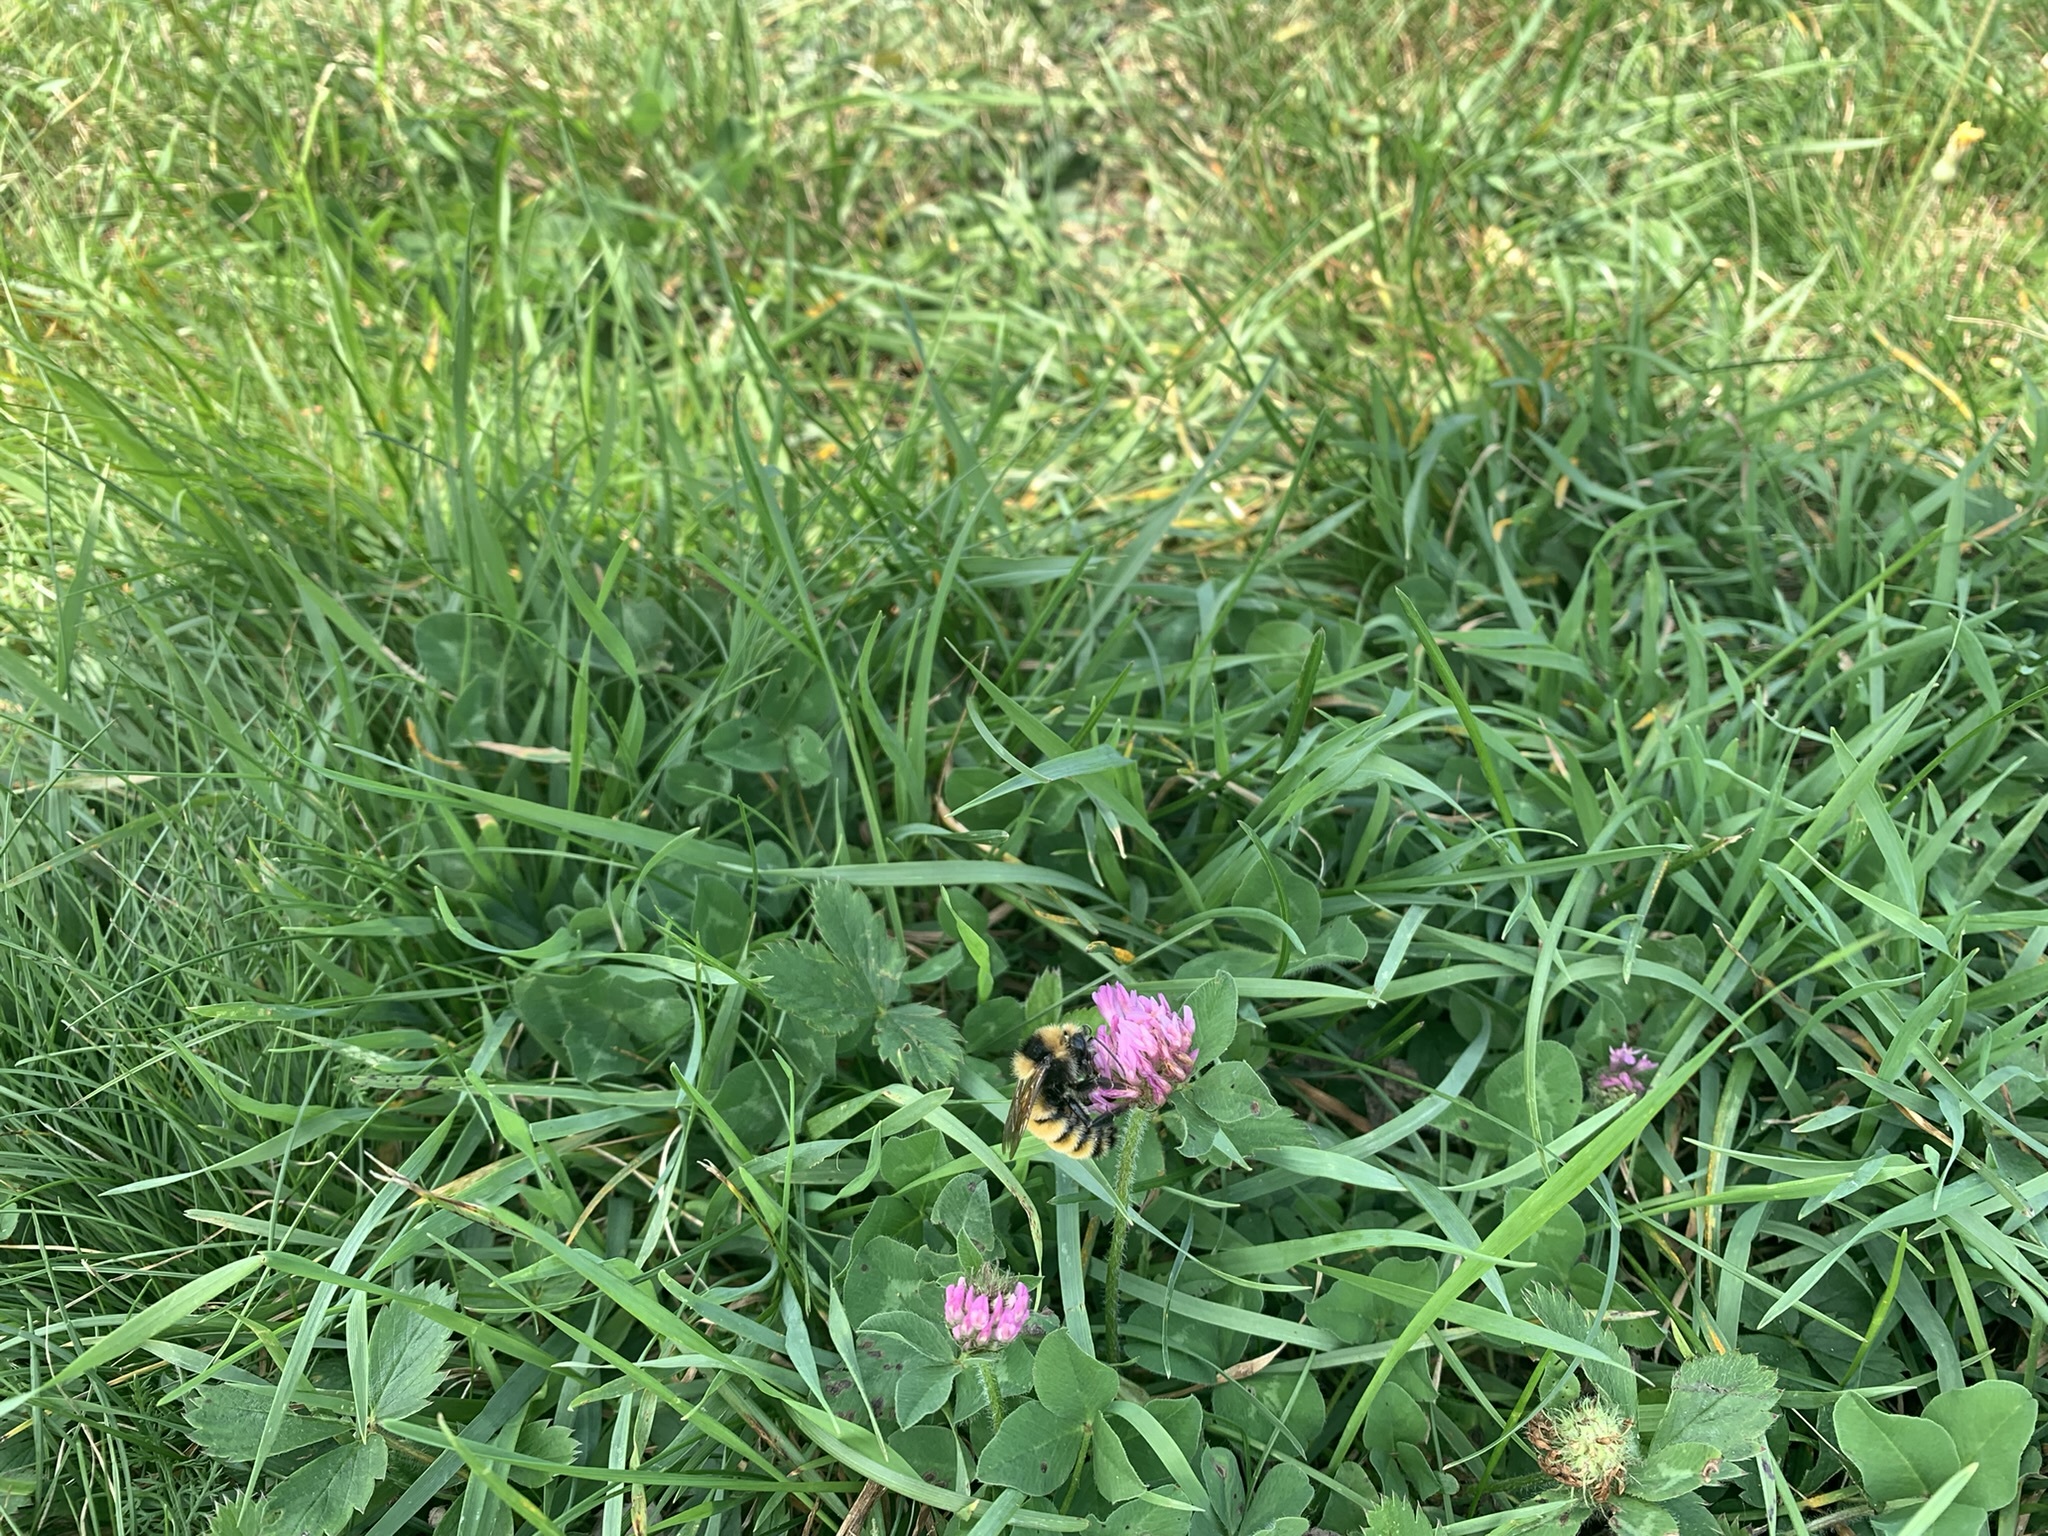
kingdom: Animalia
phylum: Arthropoda
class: Insecta
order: Hymenoptera
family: Apidae
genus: Bombus
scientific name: Bombus borealis
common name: Northern amber bumble bee
